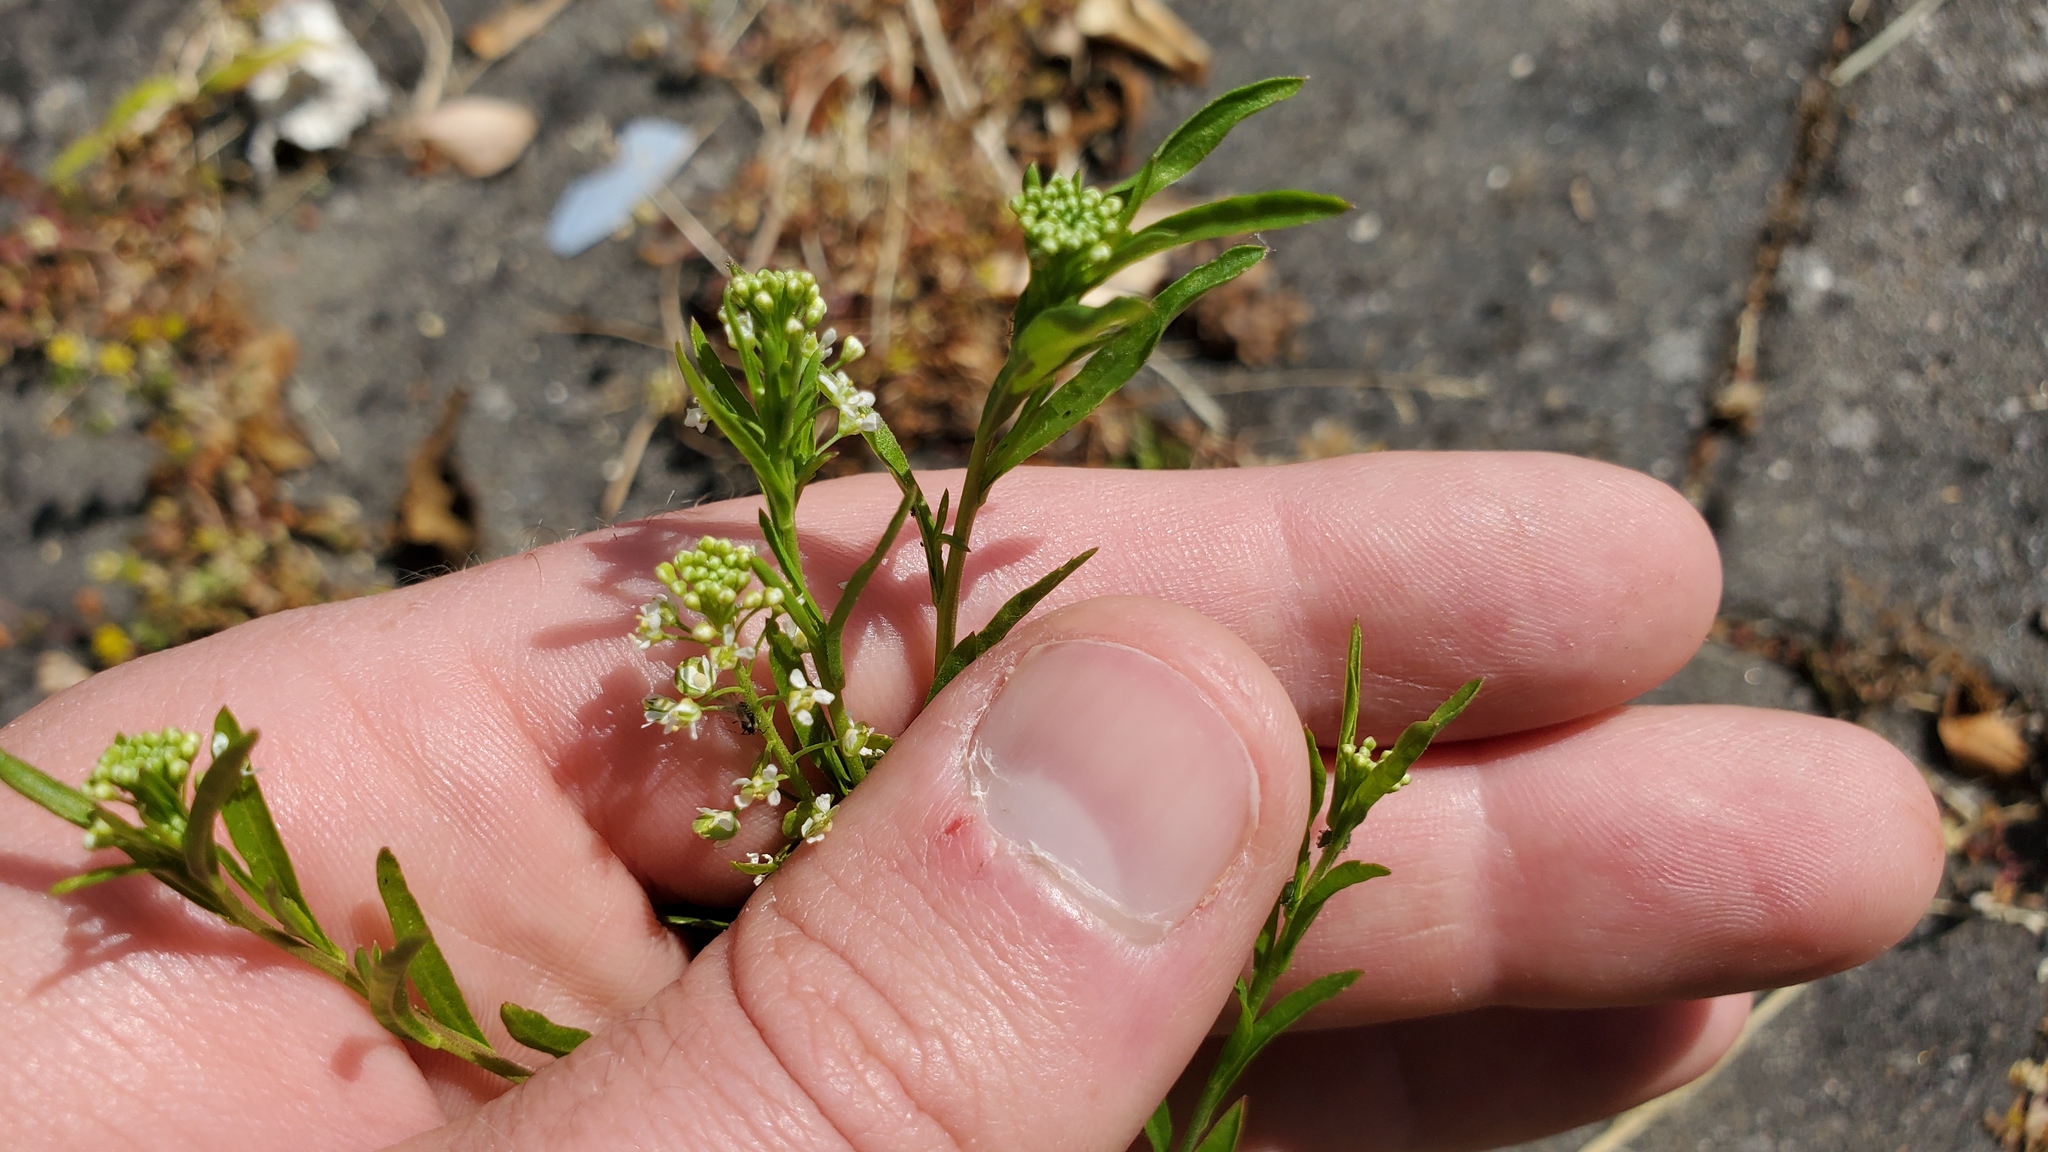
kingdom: Plantae
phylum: Tracheophyta
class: Magnoliopsida
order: Brassicales
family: Brassicaceae
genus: Lepidium
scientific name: Lepidium virginicum
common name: Least pepperwort
